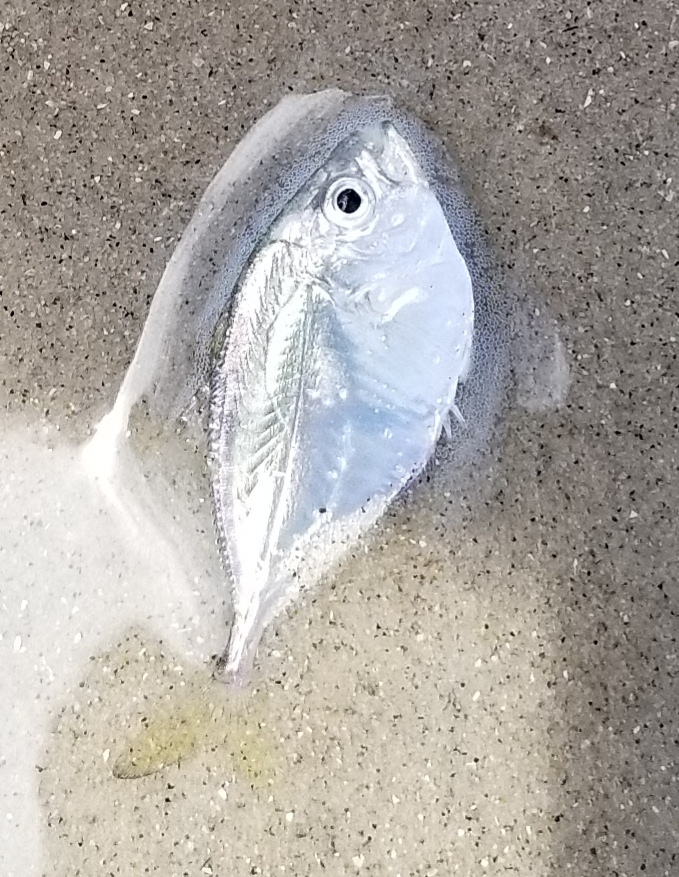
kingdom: Animalia
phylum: Chordata
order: Perciformes
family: Carangidae
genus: Chloroscombrus
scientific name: Chloroscombrus chrysurus
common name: Bumper
